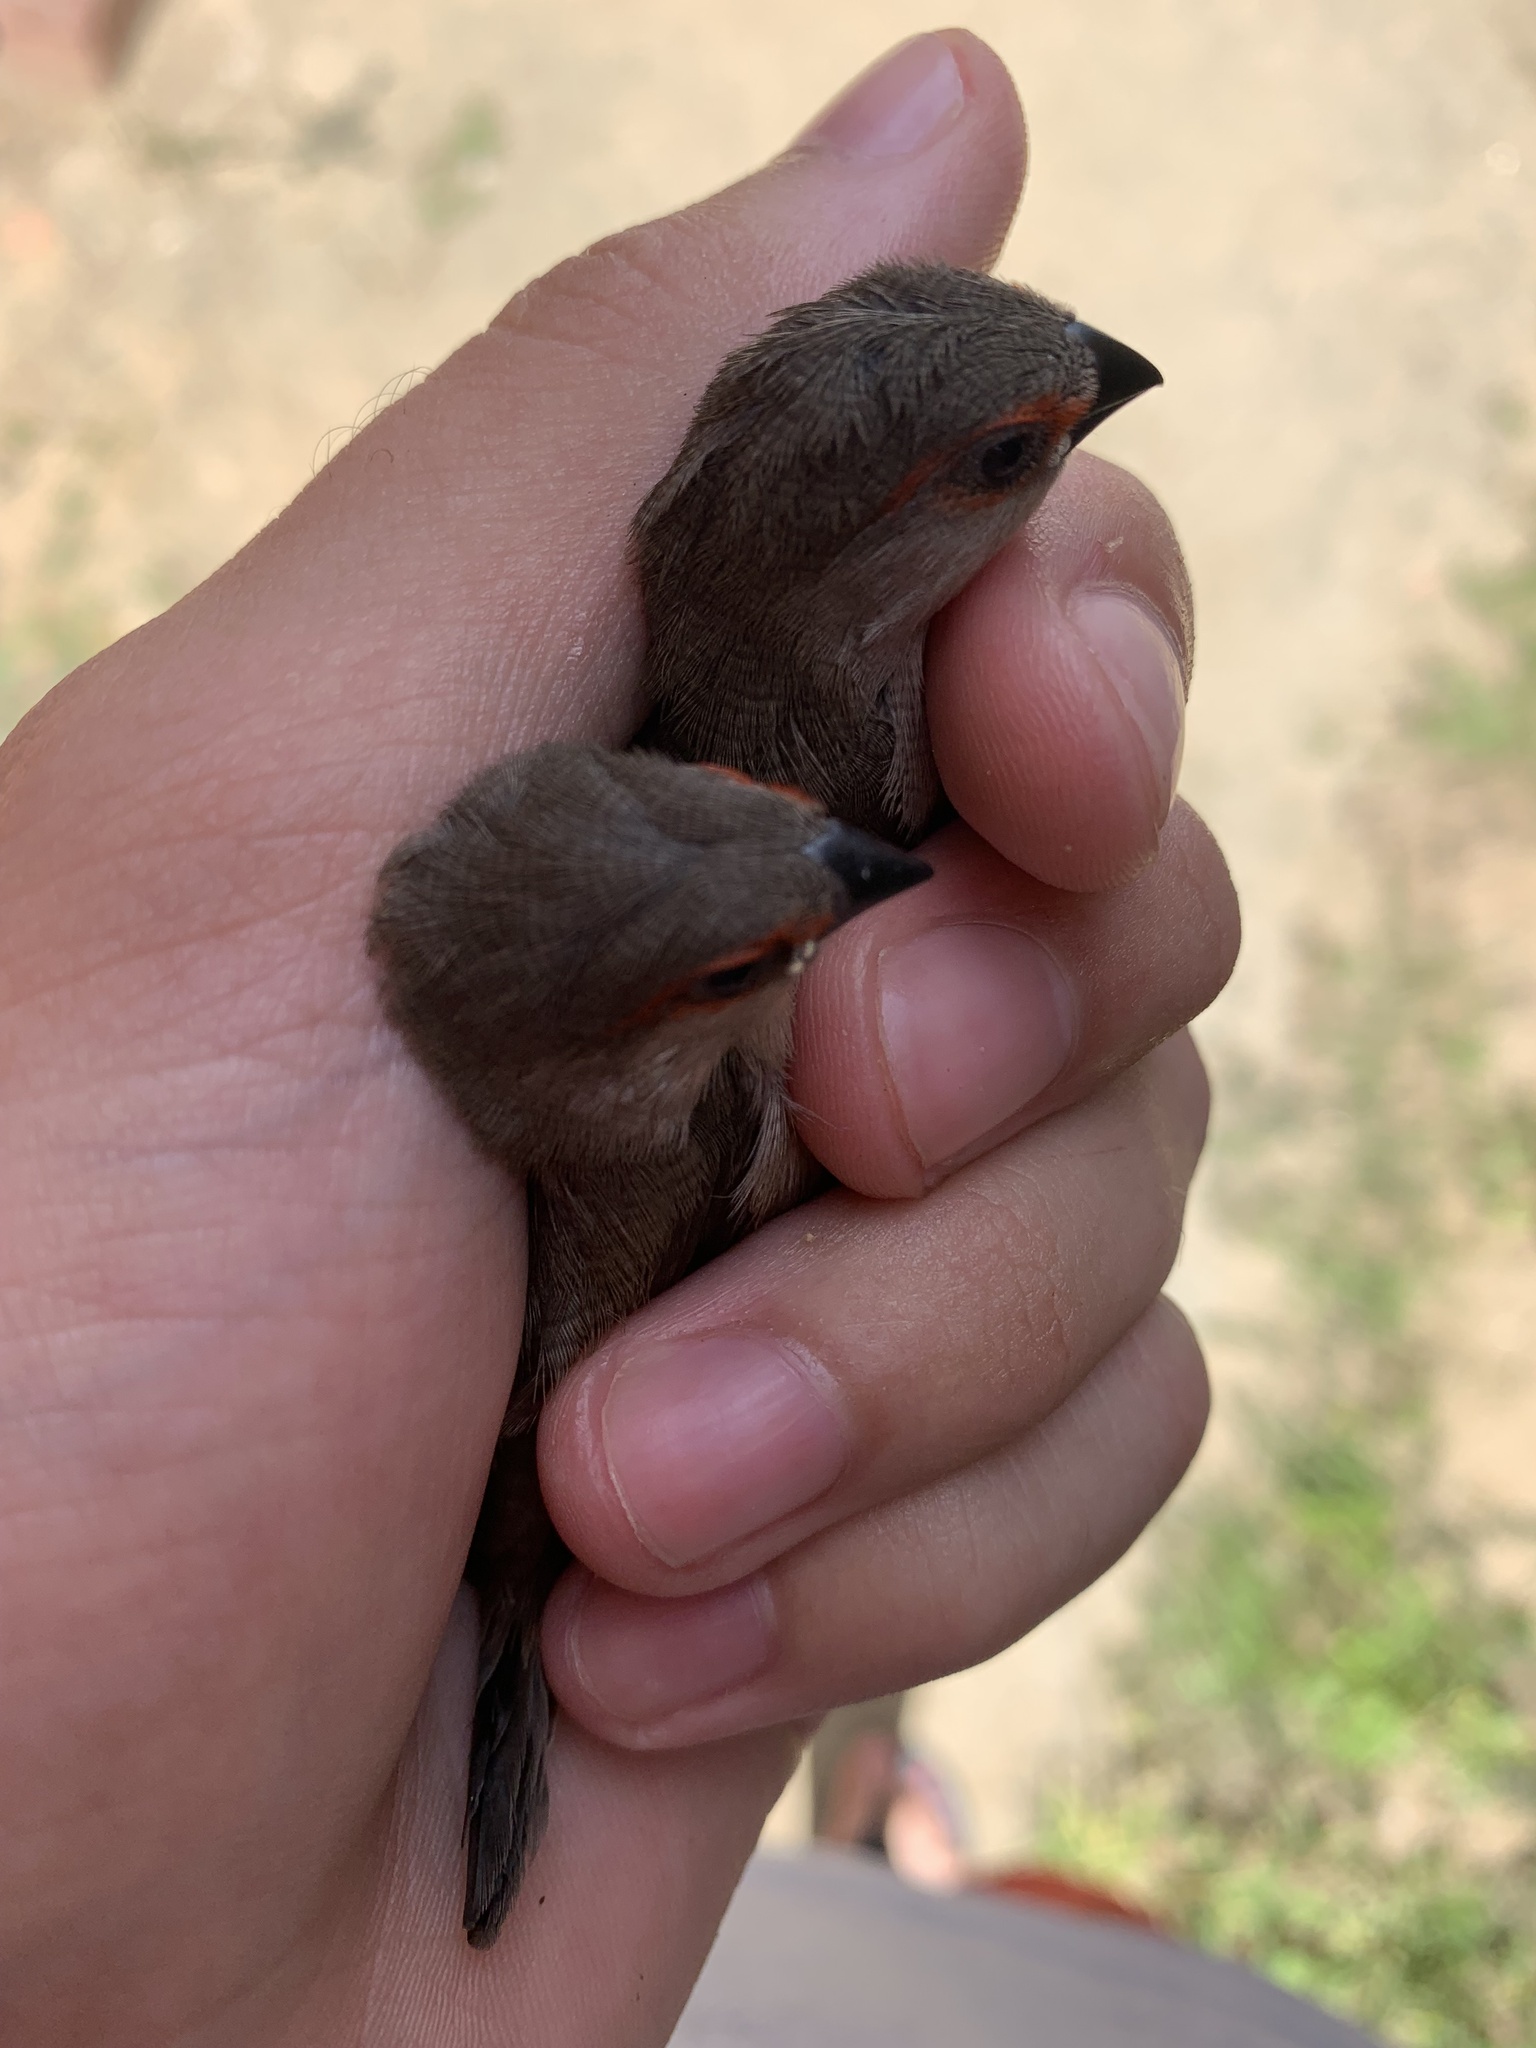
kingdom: Animalia
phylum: Chordata
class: Aves
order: Passeriformes
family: Estrildidae
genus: Estrilda
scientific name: Estrilda astrild
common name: Common waxbill
